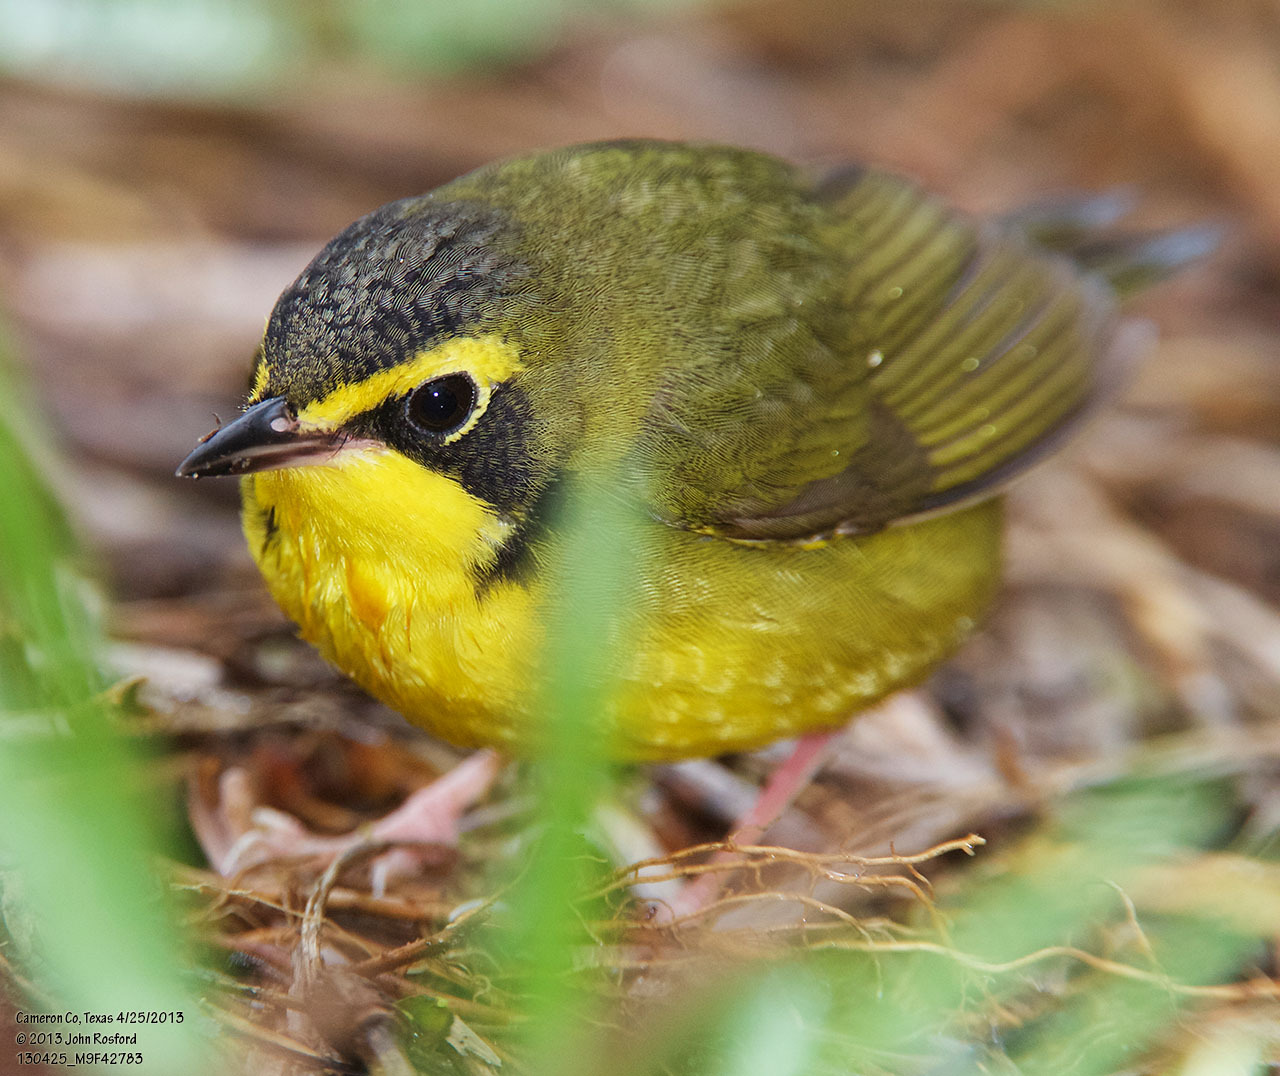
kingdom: Animalia
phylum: Chordata
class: Aves
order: Passeriformes
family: Parulidae
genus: Geothlypis
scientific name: Geothlypis formosa
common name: Kentucky warbler
